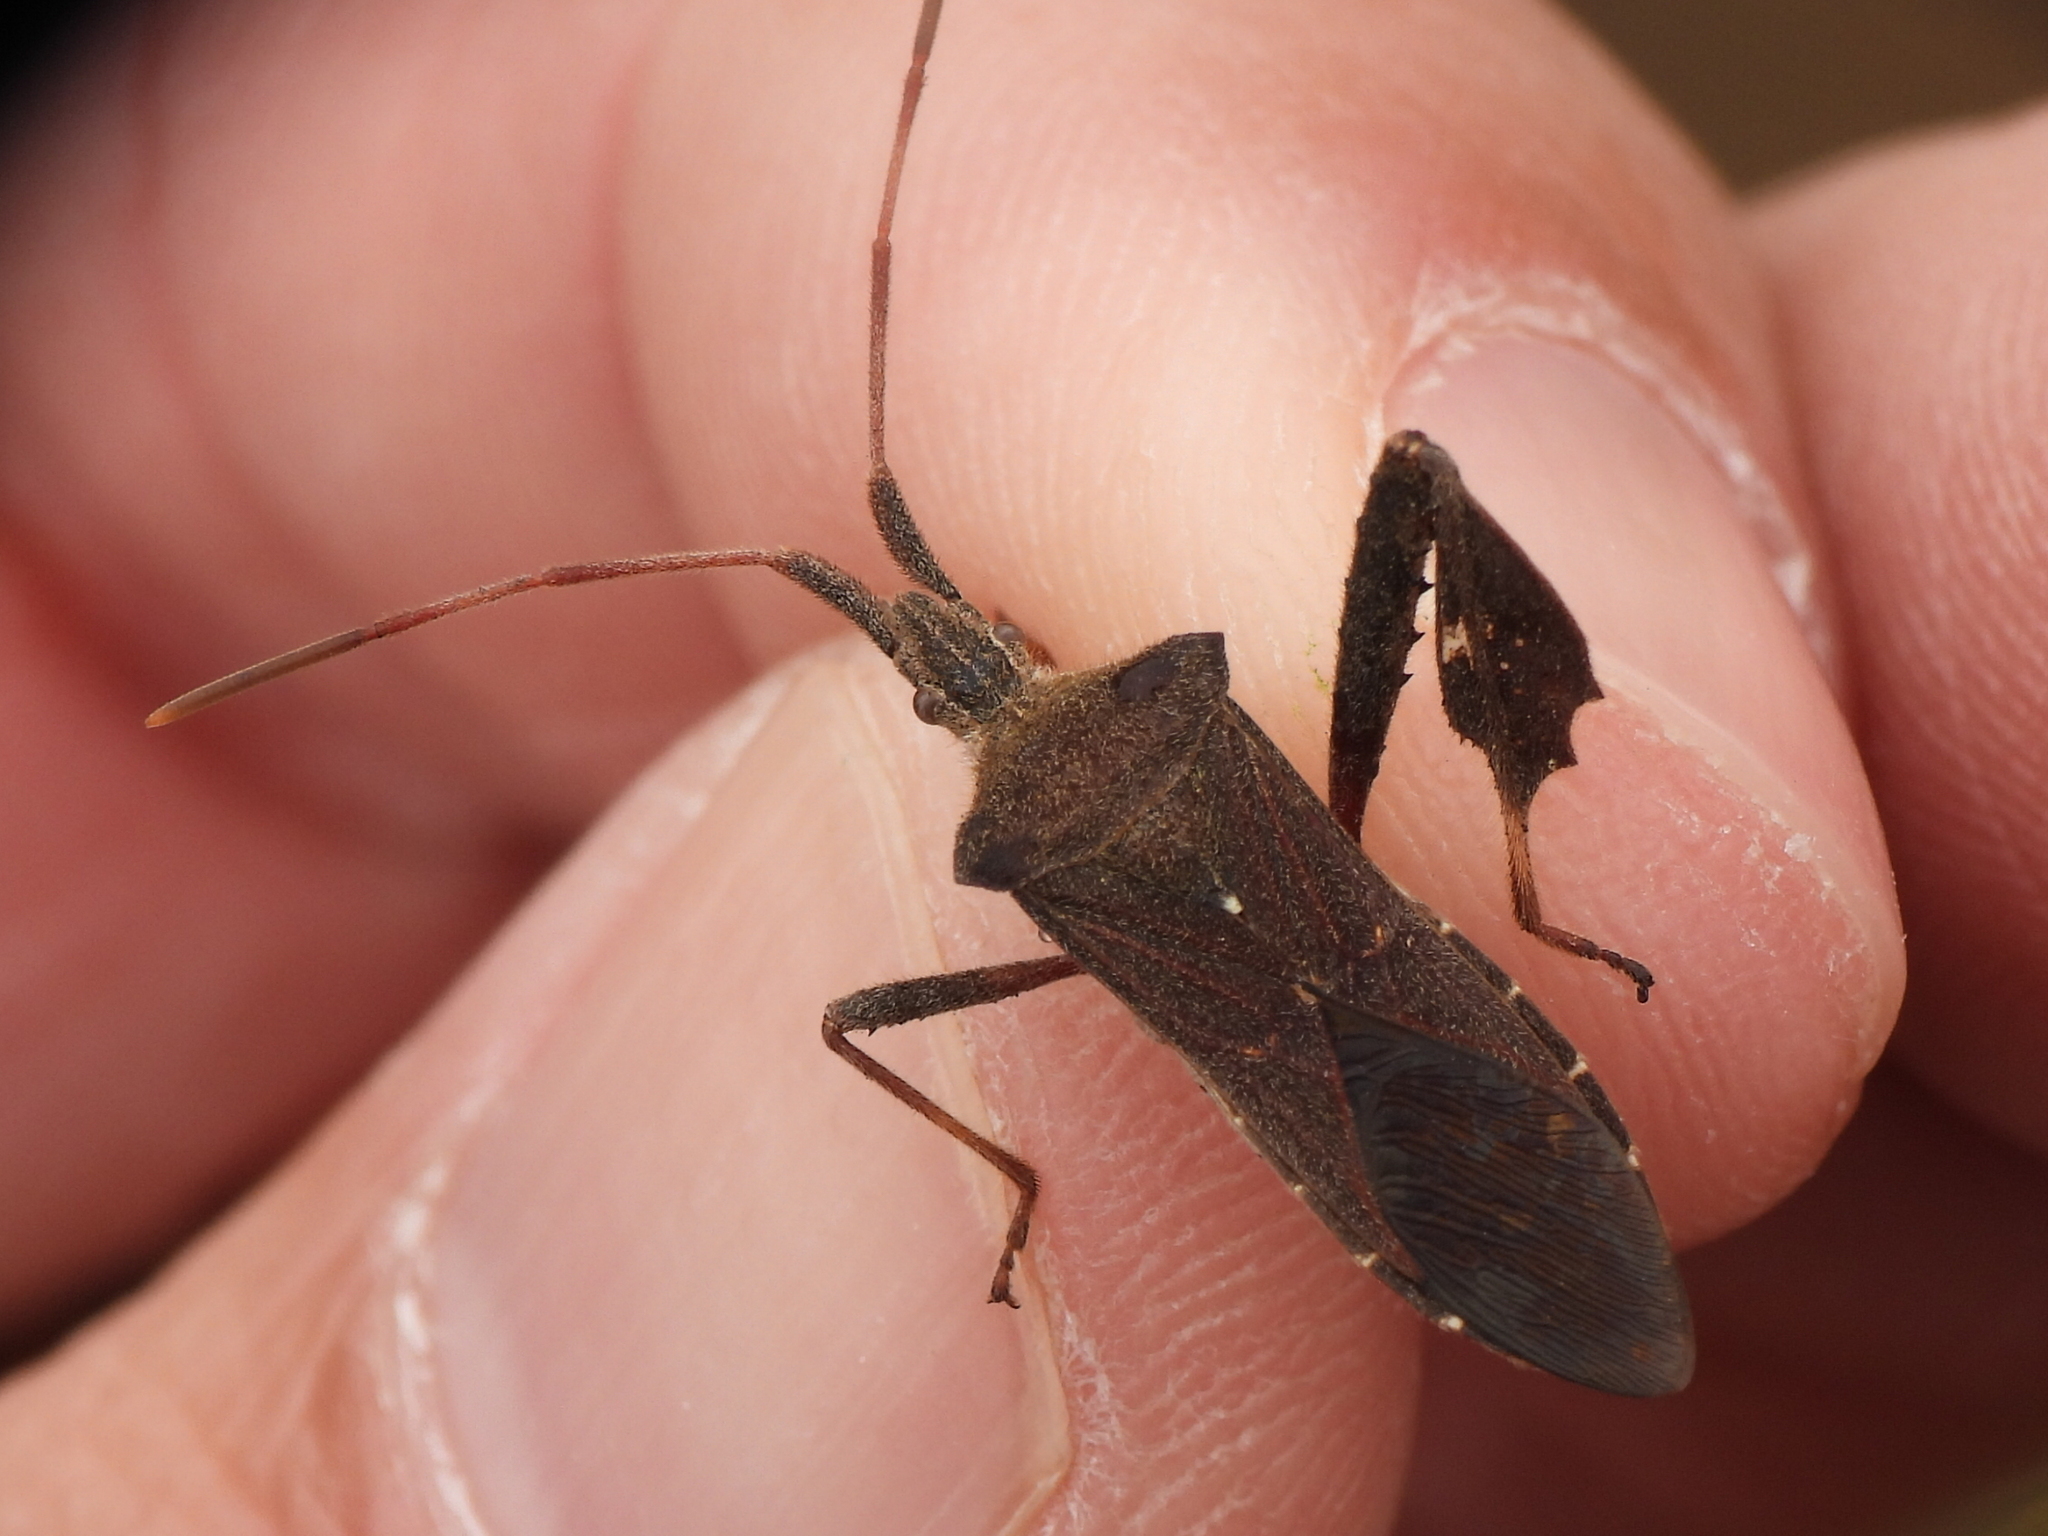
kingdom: Animalia
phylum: Arthropoda
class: Insecta
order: Hemiptera
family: Coreidae
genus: Leptoglossus
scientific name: Leptoglossus oppositus
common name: Northern leaf-footed bug
